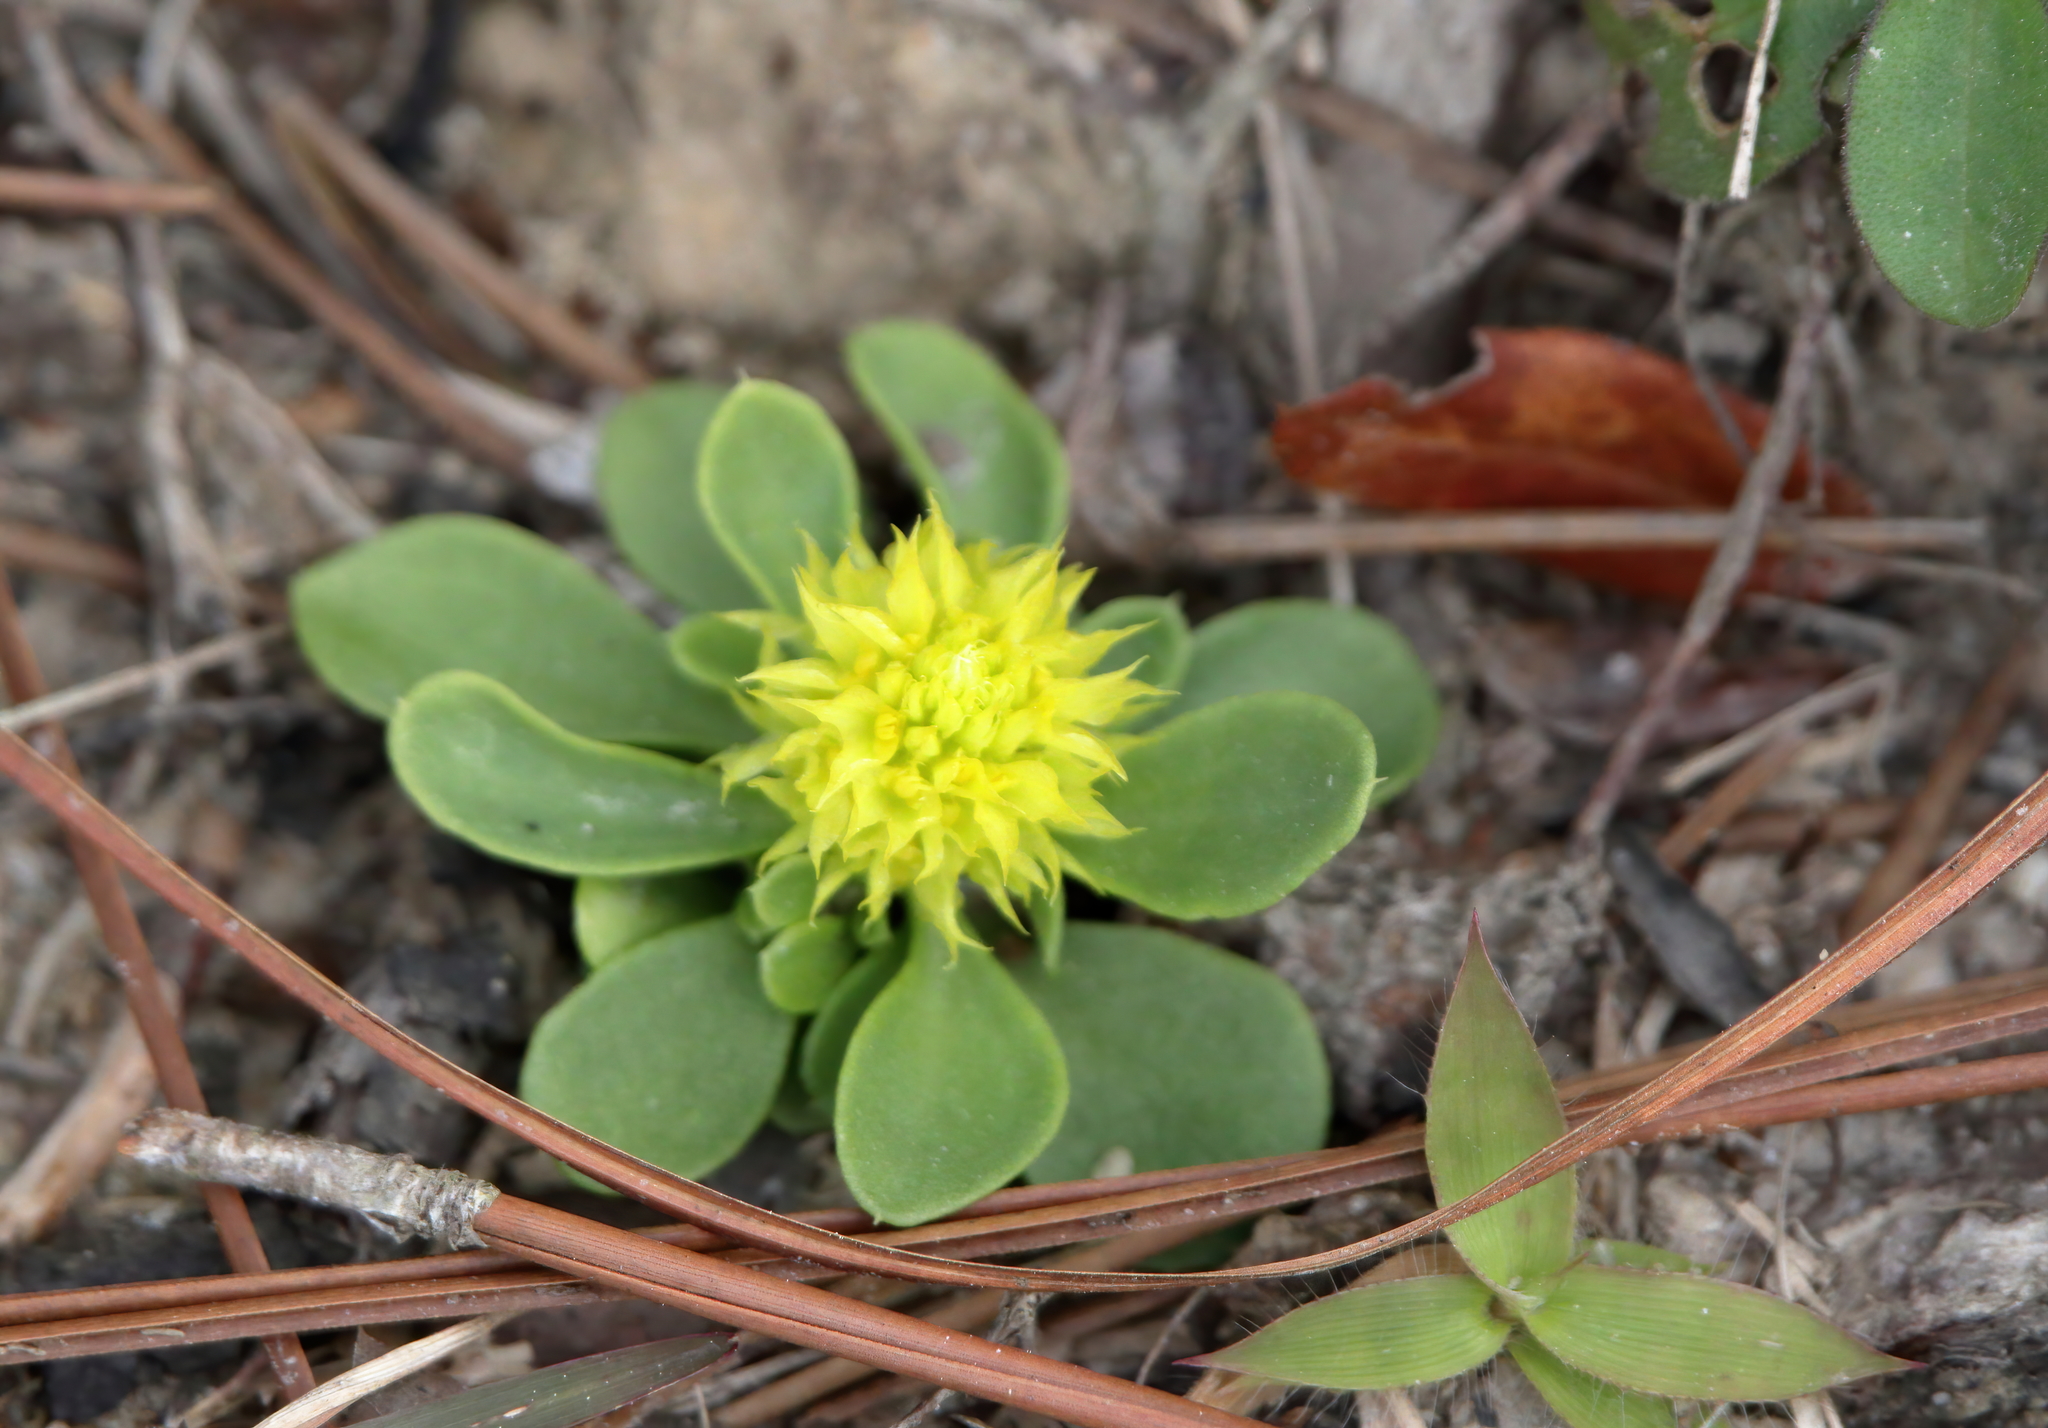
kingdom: Plantae
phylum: Tracheophyta
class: Magnoliopsida
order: Fabales
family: Polygalaceae
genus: Polygala
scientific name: Polygala nana
